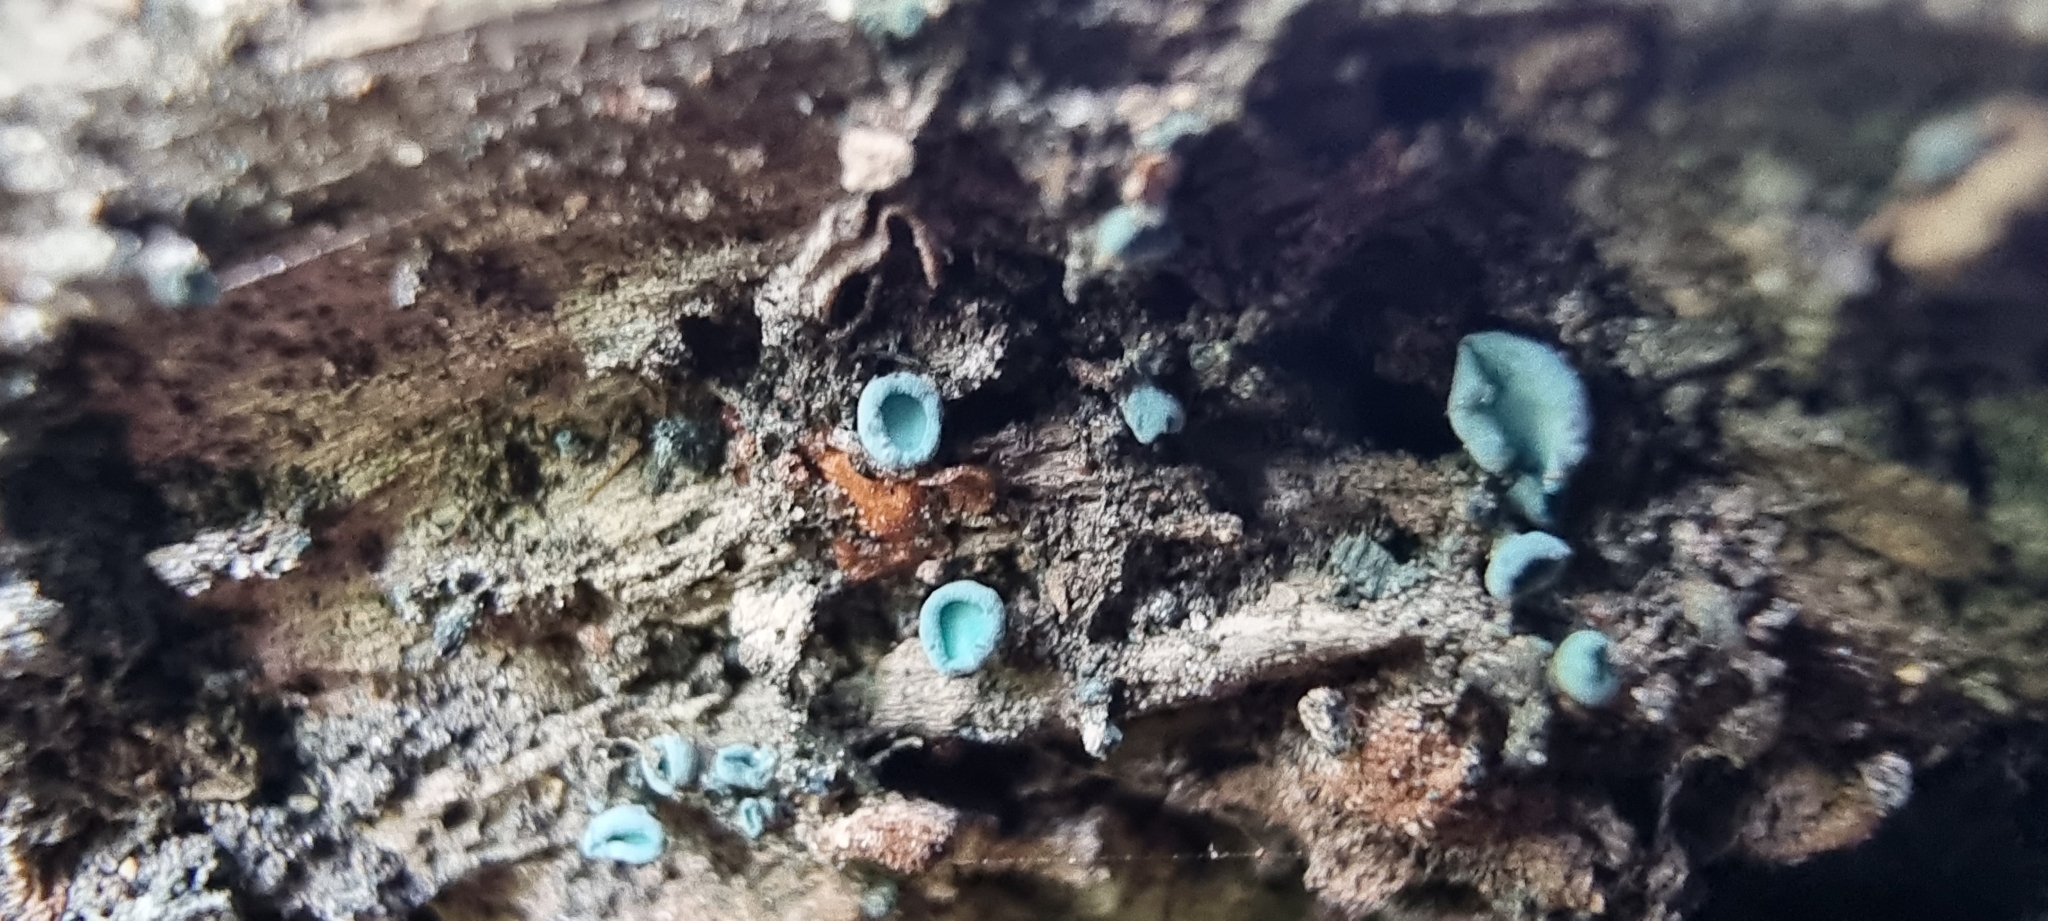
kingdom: Fungi
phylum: Ascomycota
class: Leotiomycetes
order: Helotiales
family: Chlorociboriaceae
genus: Chlorociboria
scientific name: Chlorociboria aeruginascens
